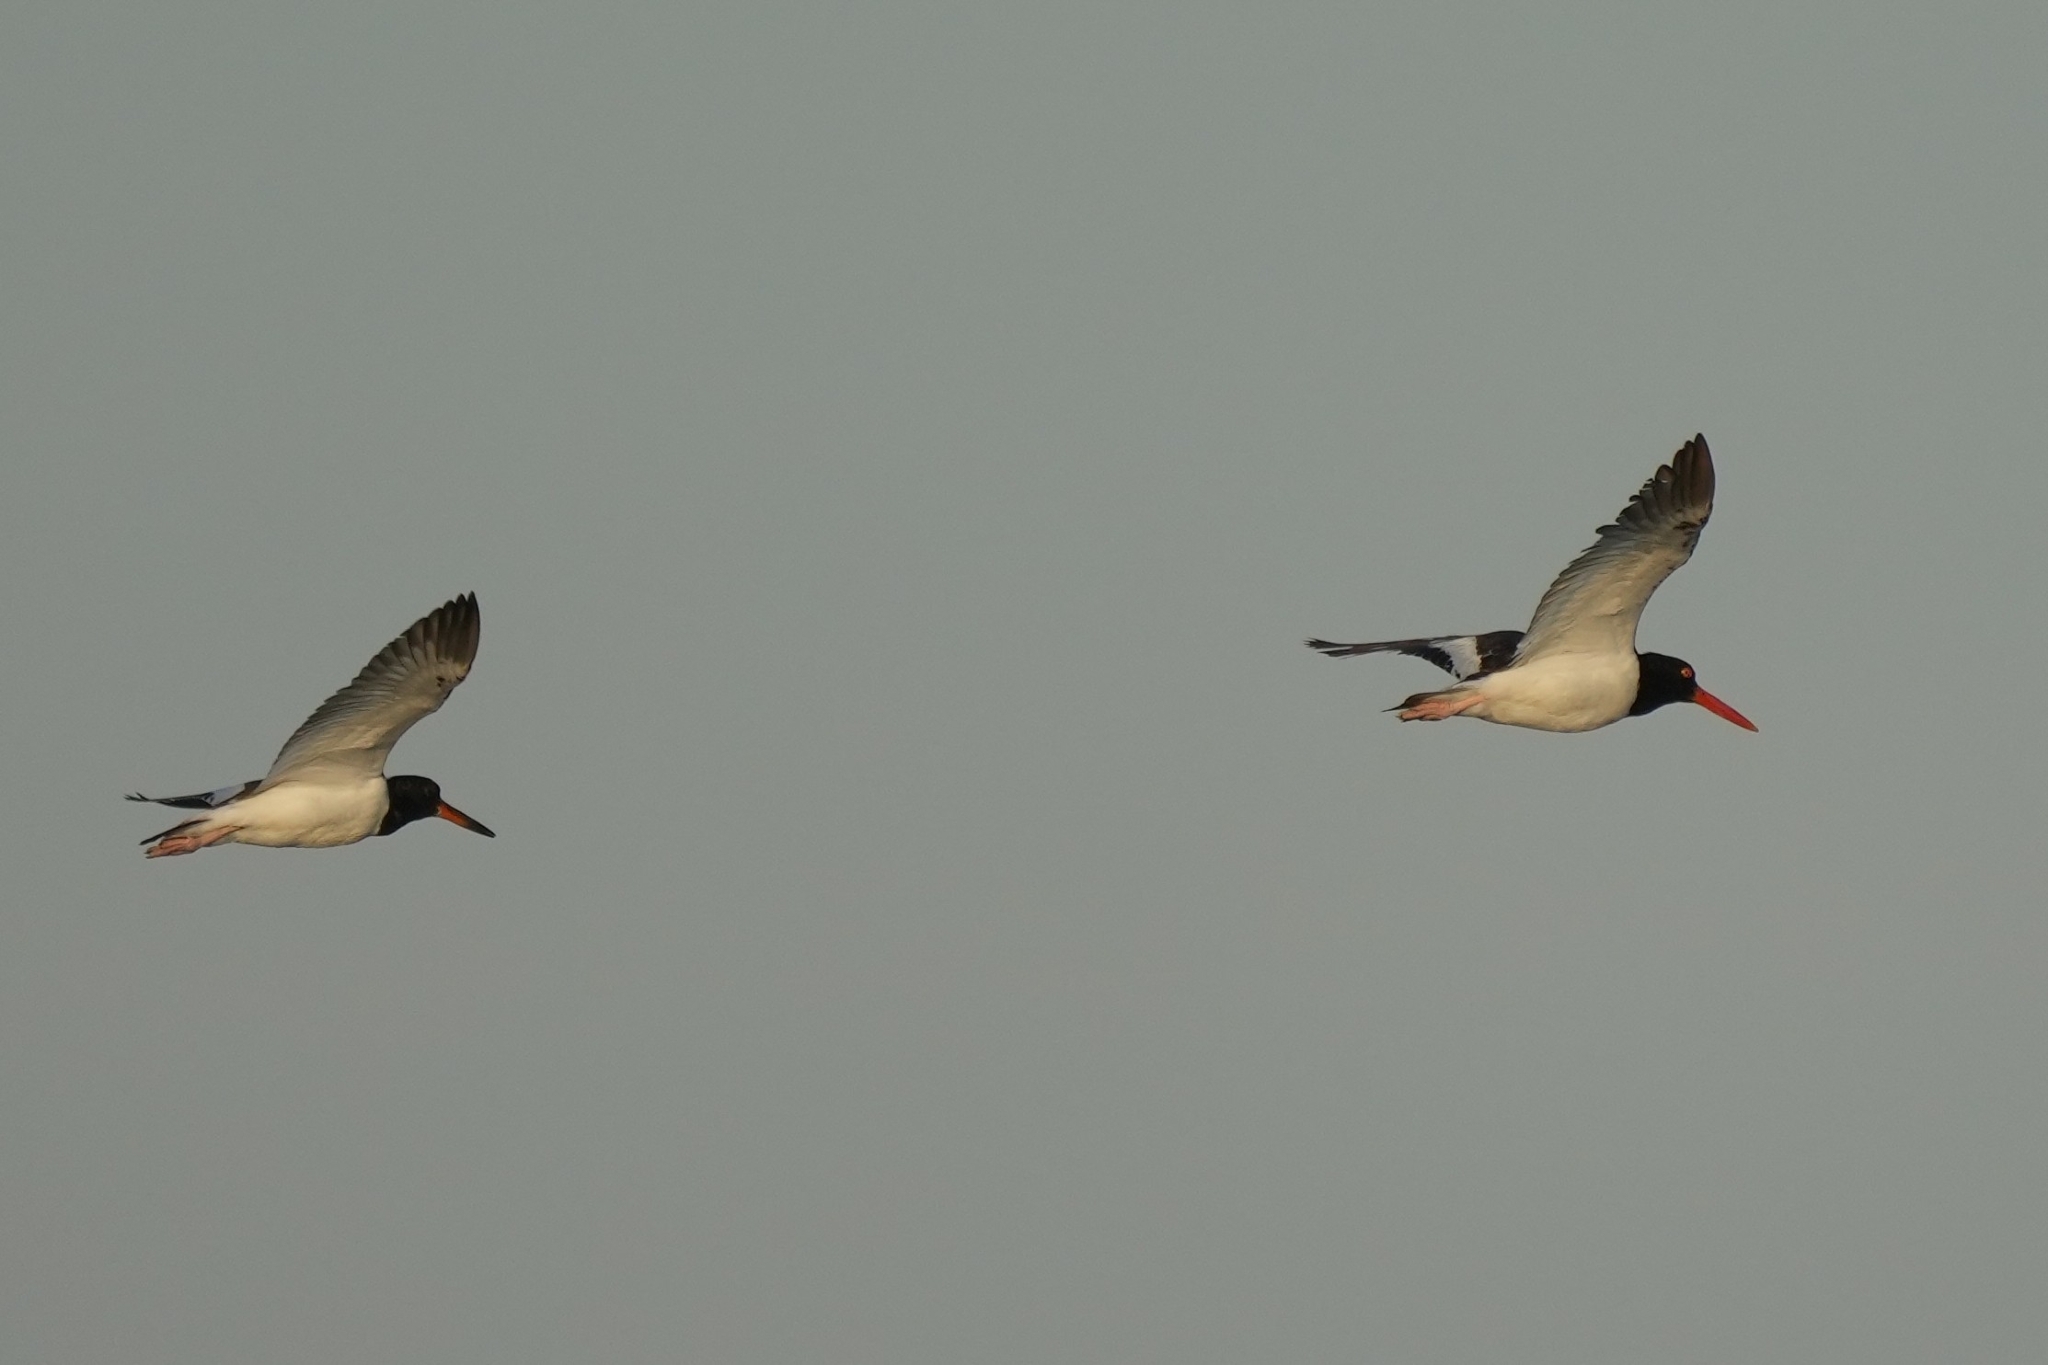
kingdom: Animalia
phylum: Chordata
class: Aves
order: Charadriiformes
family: Haematopodidae
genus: Haematopus
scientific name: Haematopus palliatus
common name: American oystercatcher
